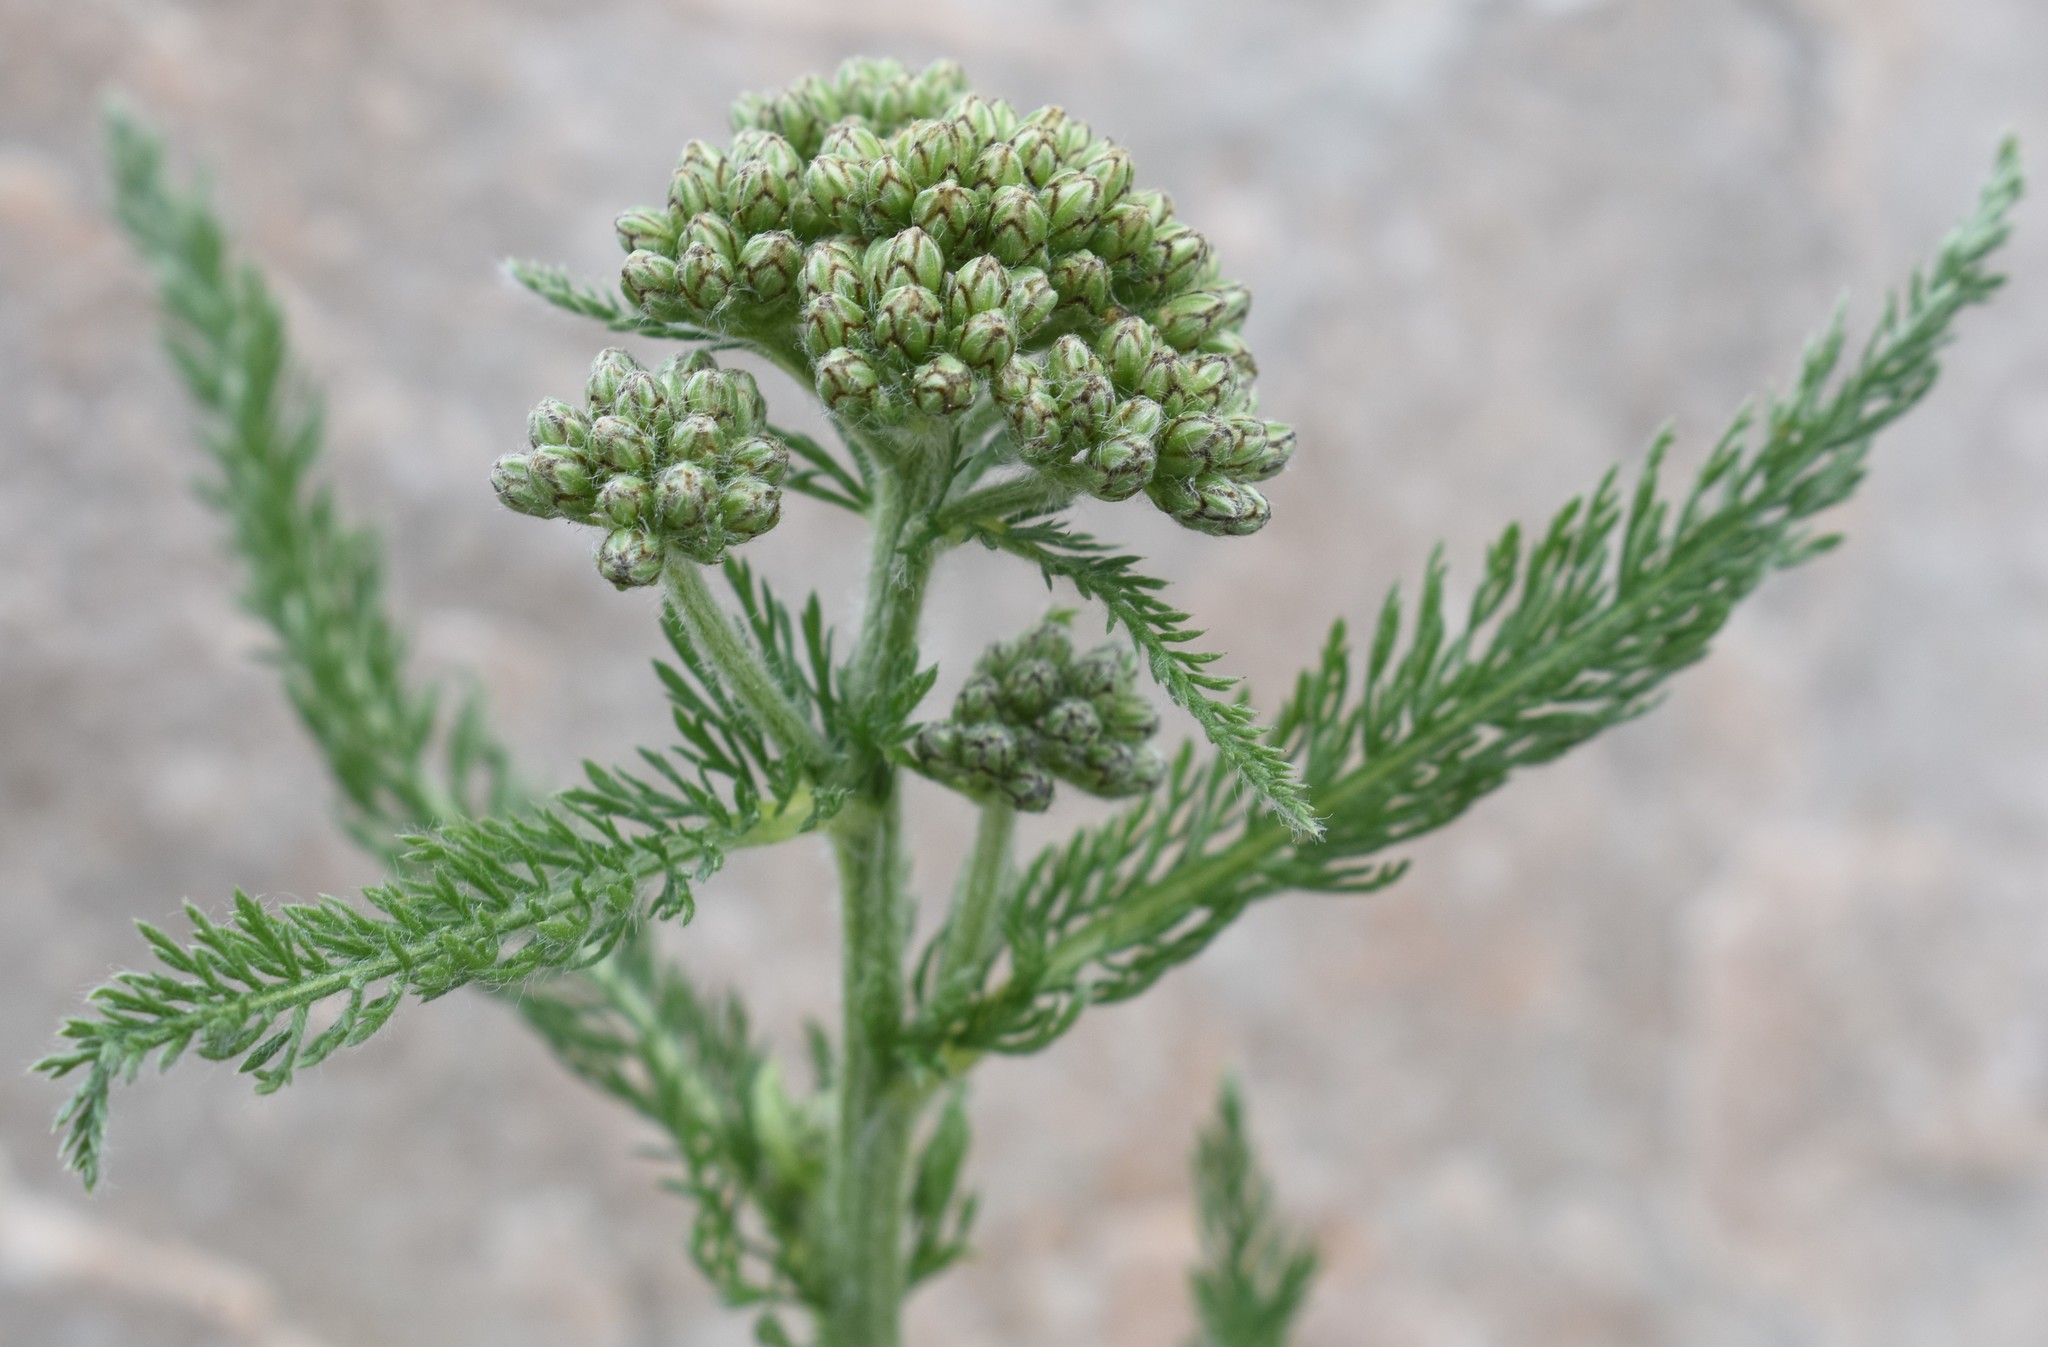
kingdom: Plantae
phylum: Tracheophyta
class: Magnoliopsida
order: Asterales
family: Asteraceae
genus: Achillea
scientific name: Achillea millefolium
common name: Yarrow
